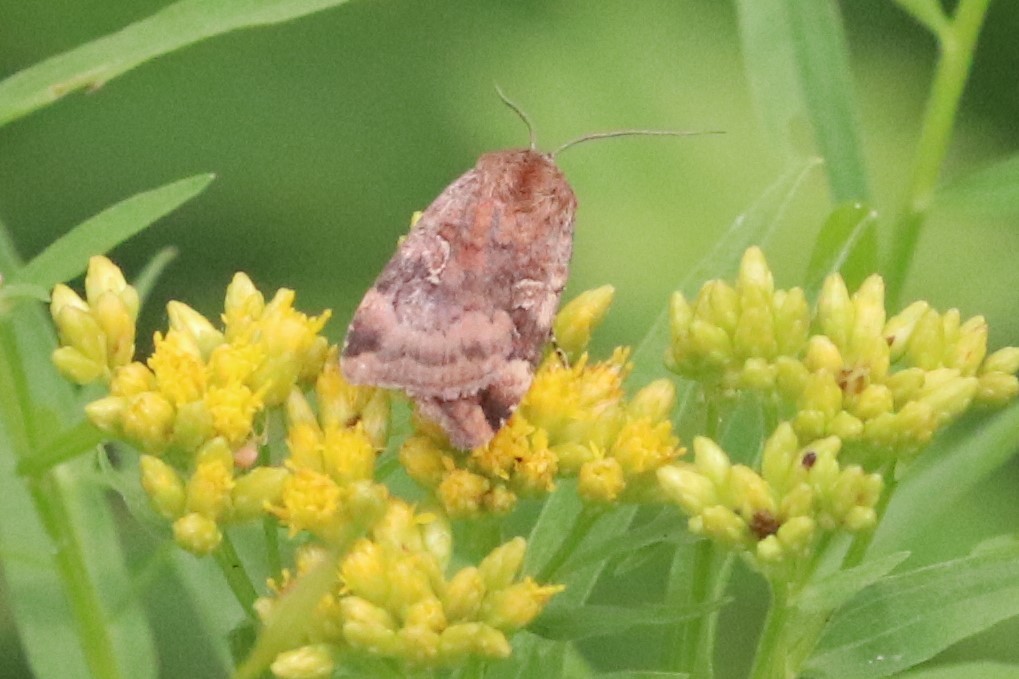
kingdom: Animalia
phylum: Arthropoda
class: Insecta
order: Lepidoptera
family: Noctuidae
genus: Cryptocala
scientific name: Cryptocala acadiensis
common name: Catocaline dart
